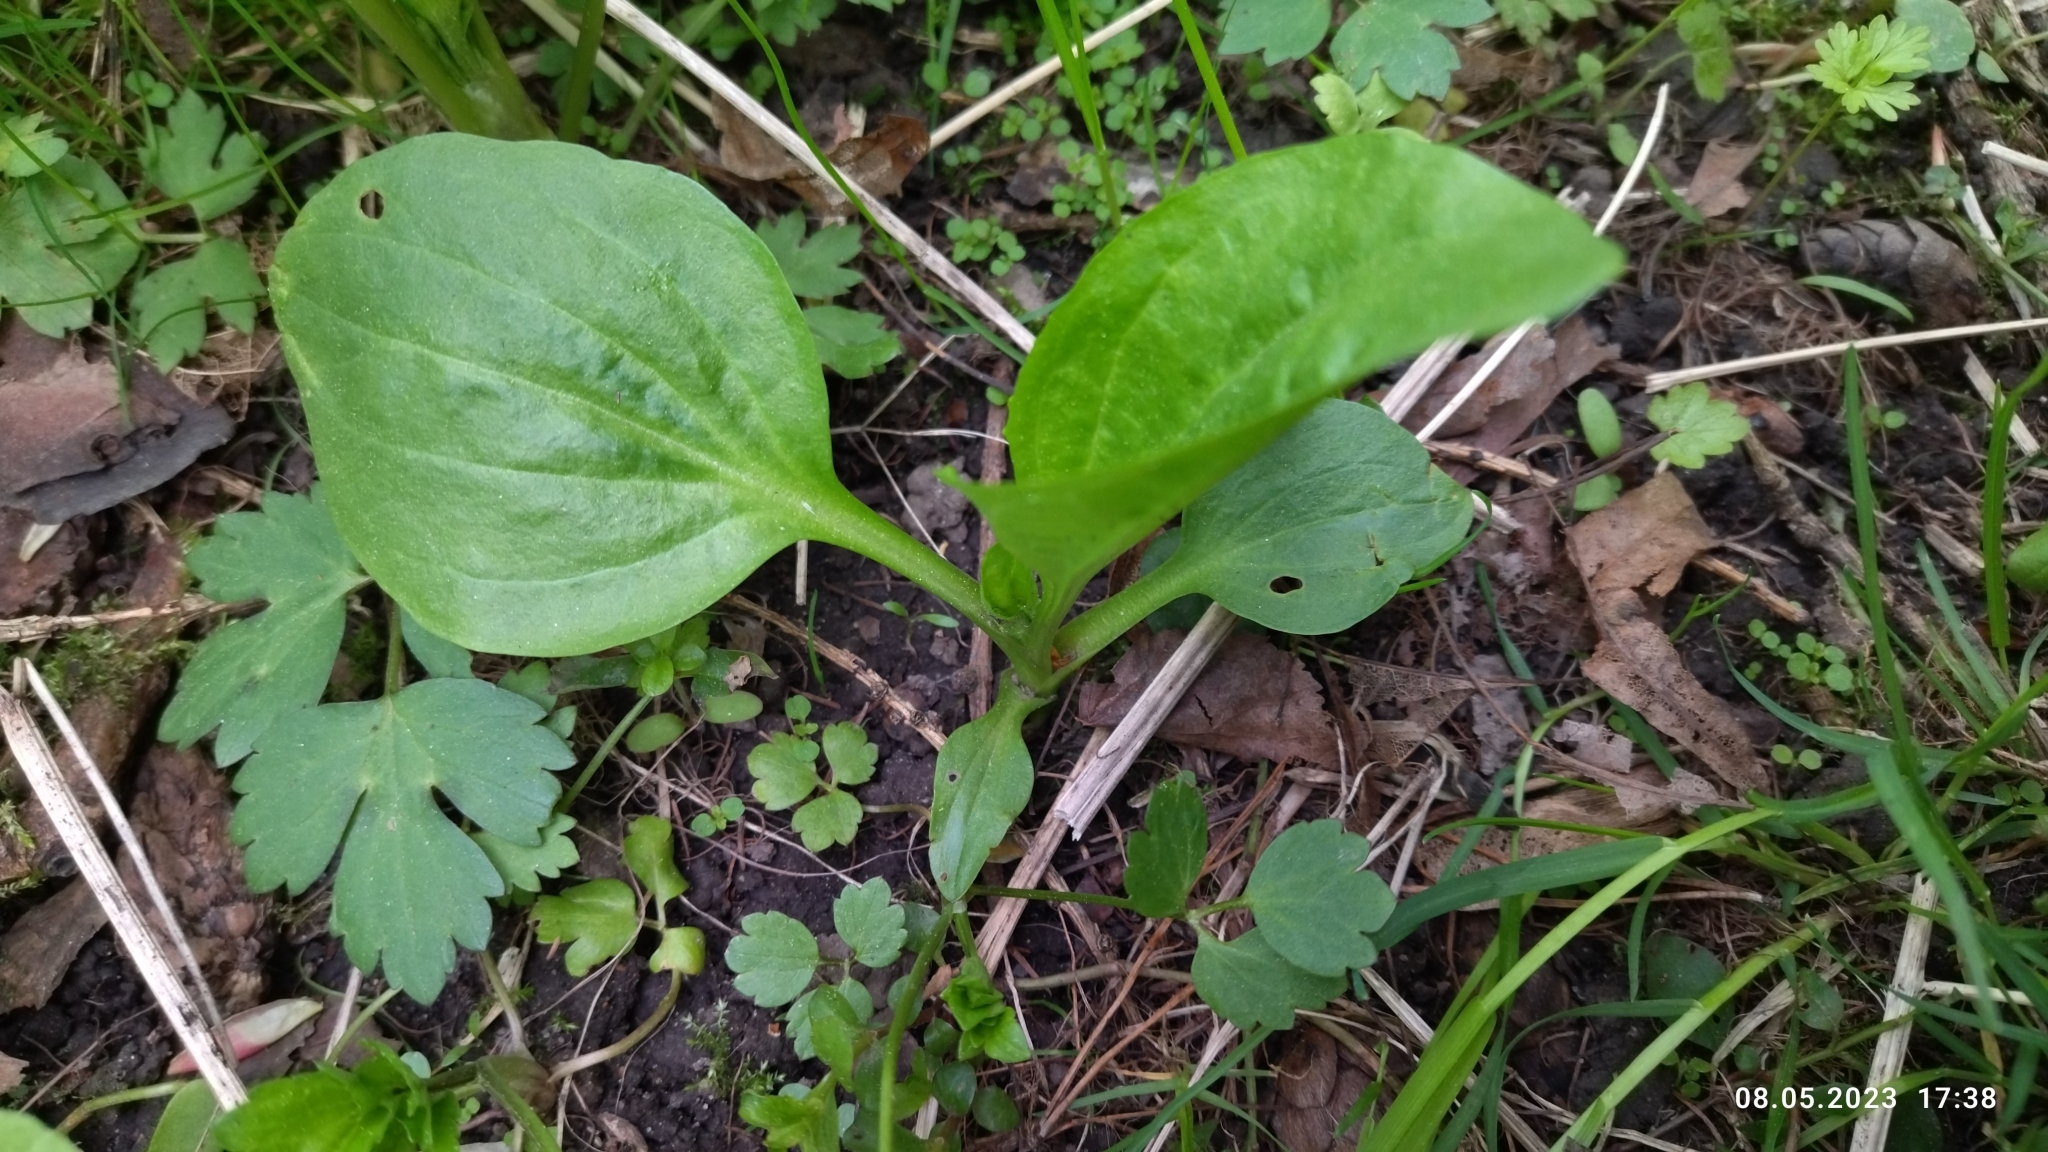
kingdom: Plantae
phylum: Tracheophyta
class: Magnoliopsida
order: Lamiales
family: Plantaginaceae
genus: Plantago
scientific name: Plantago major
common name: Common plantain
